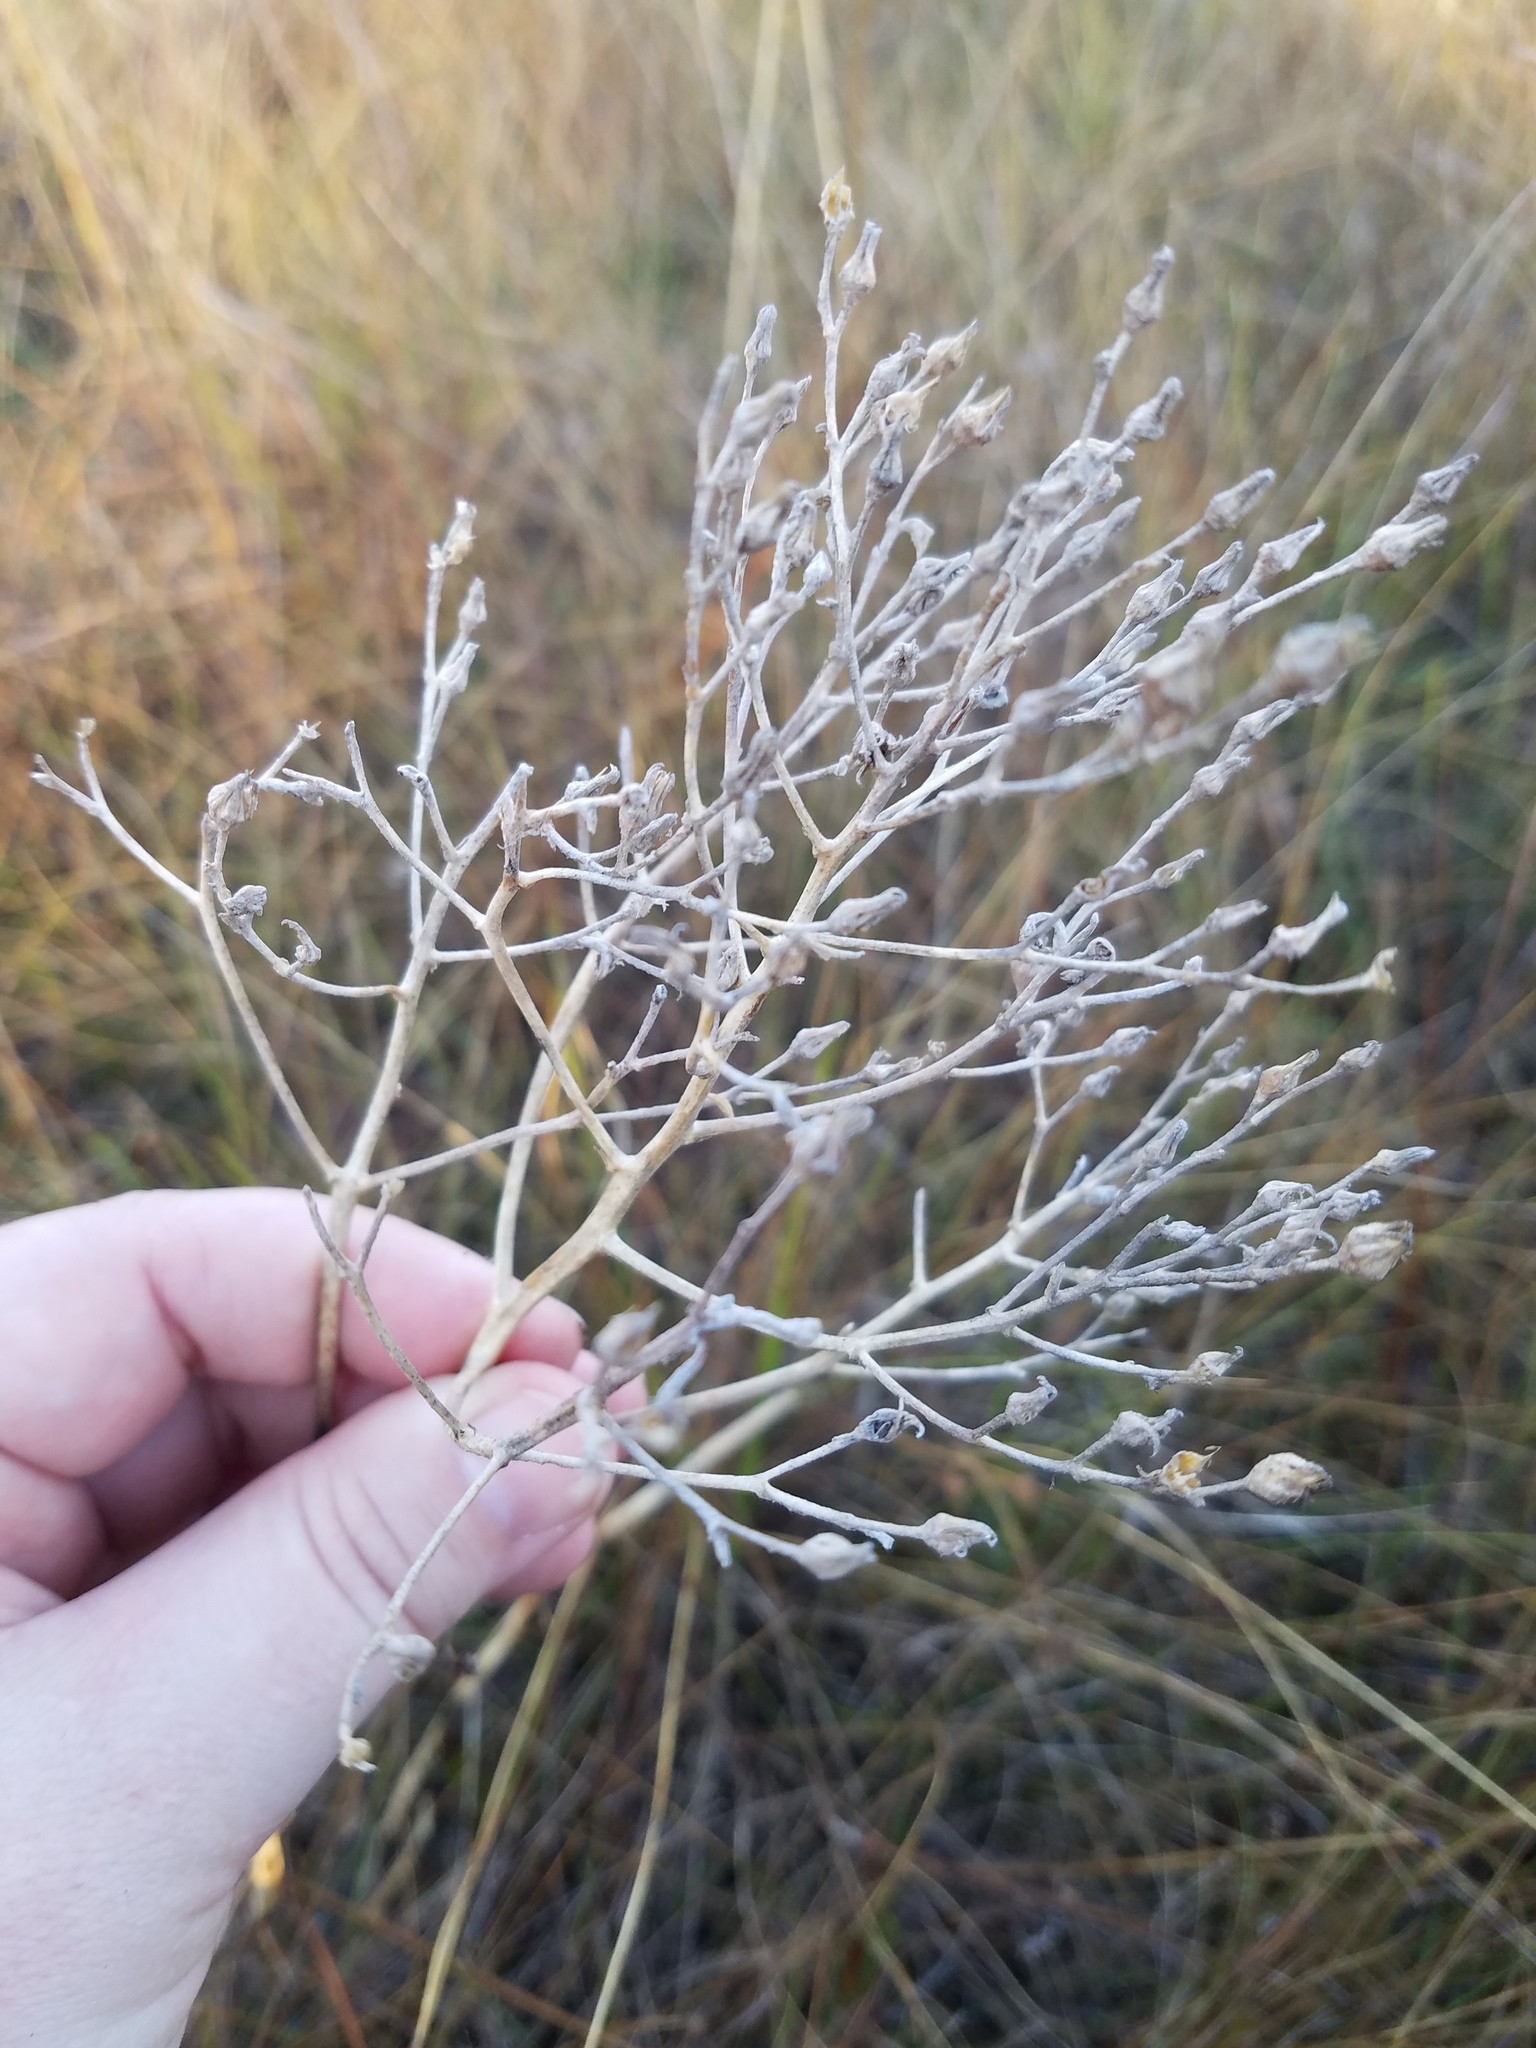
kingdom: Plantae
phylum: Tracheophyta
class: Liliopsida
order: Dioscoreales
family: Nartheciaceae
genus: Lophiola
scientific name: Lophiola aurea
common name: Golden-crest
